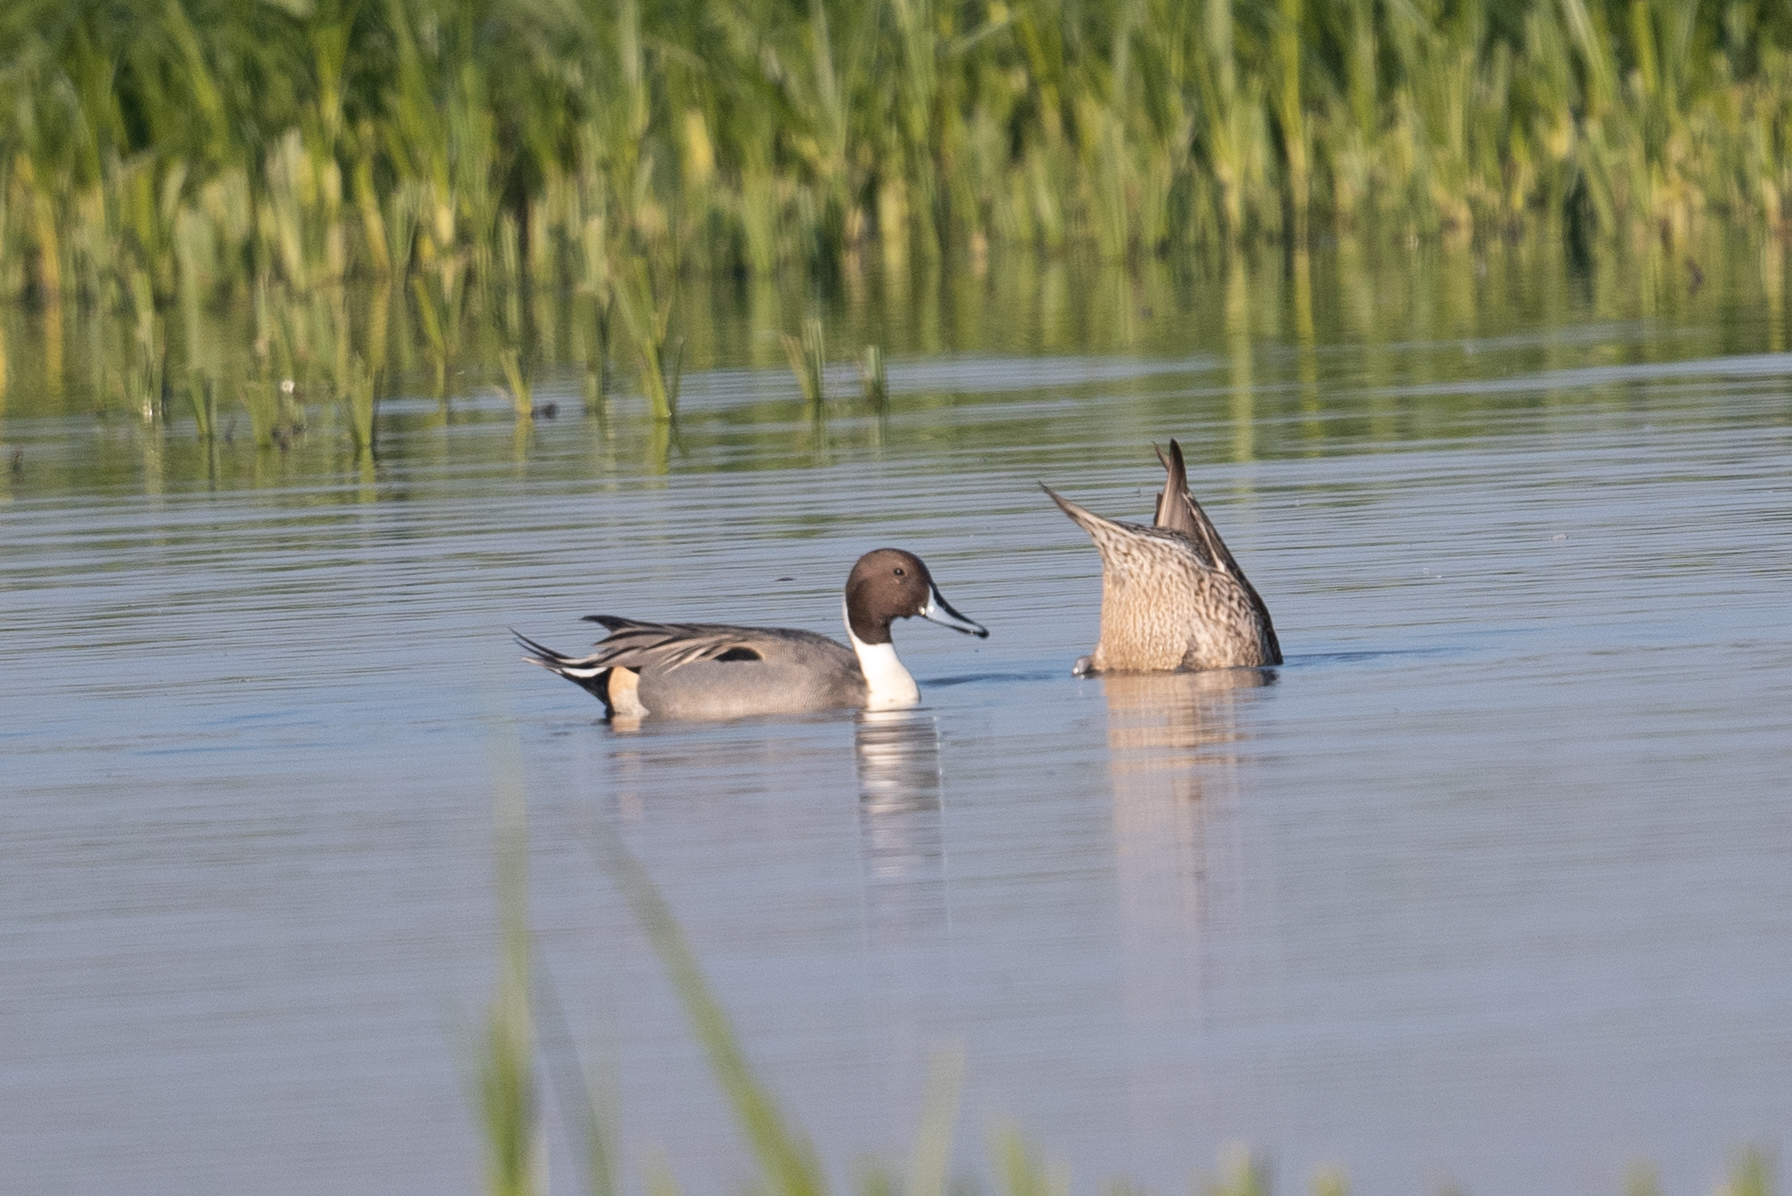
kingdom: Animalia
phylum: Chordata
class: Aves
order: Anseriformes
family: Anatidae
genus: Anas
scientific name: Anas acuta
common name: Northern pintail
